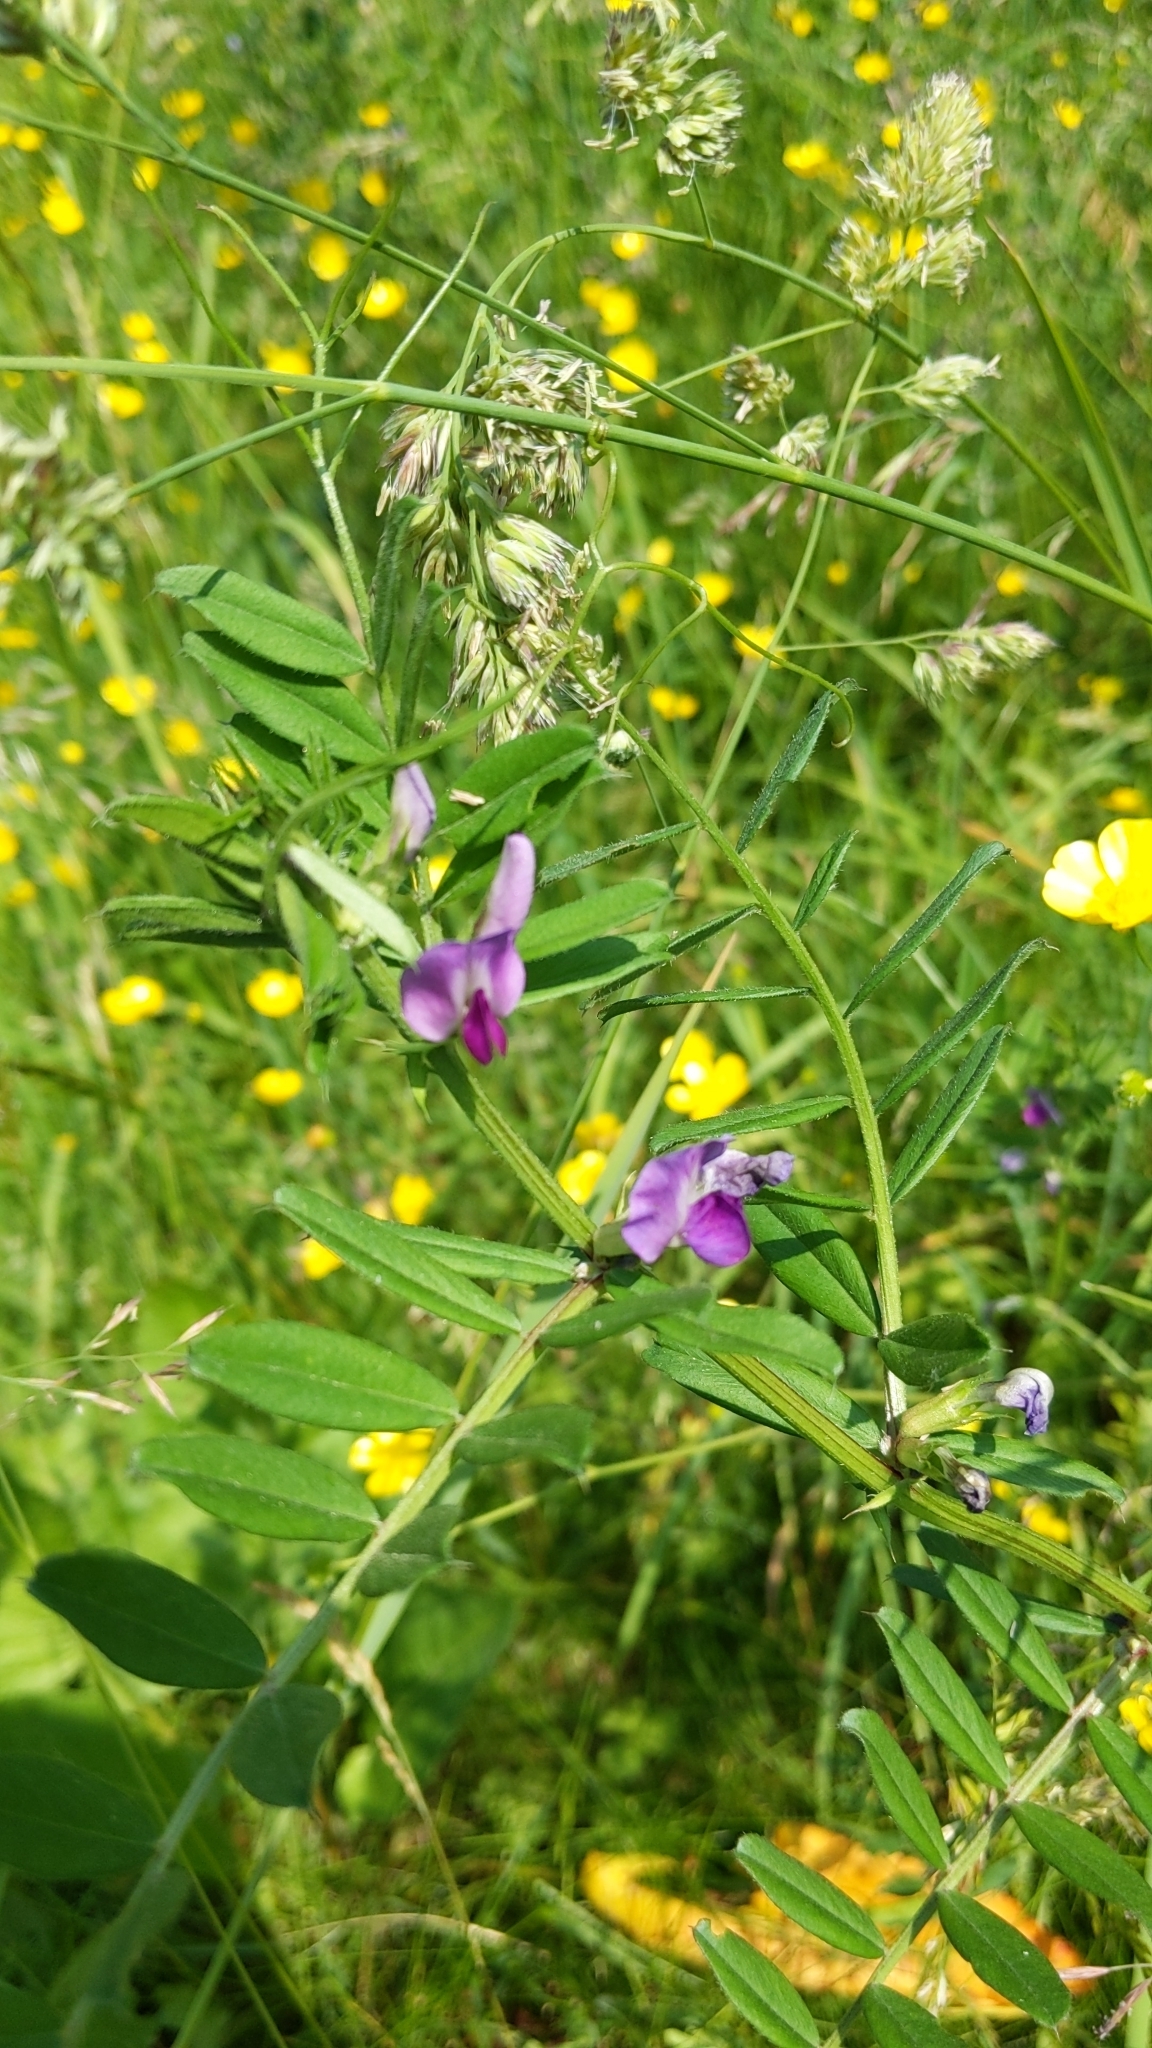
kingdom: Plantae
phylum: Tracheophyta
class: Magnoliopsida
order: Fabales
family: Fabaceae
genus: Vicia
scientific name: Vicia sativa
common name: Garden vetch
